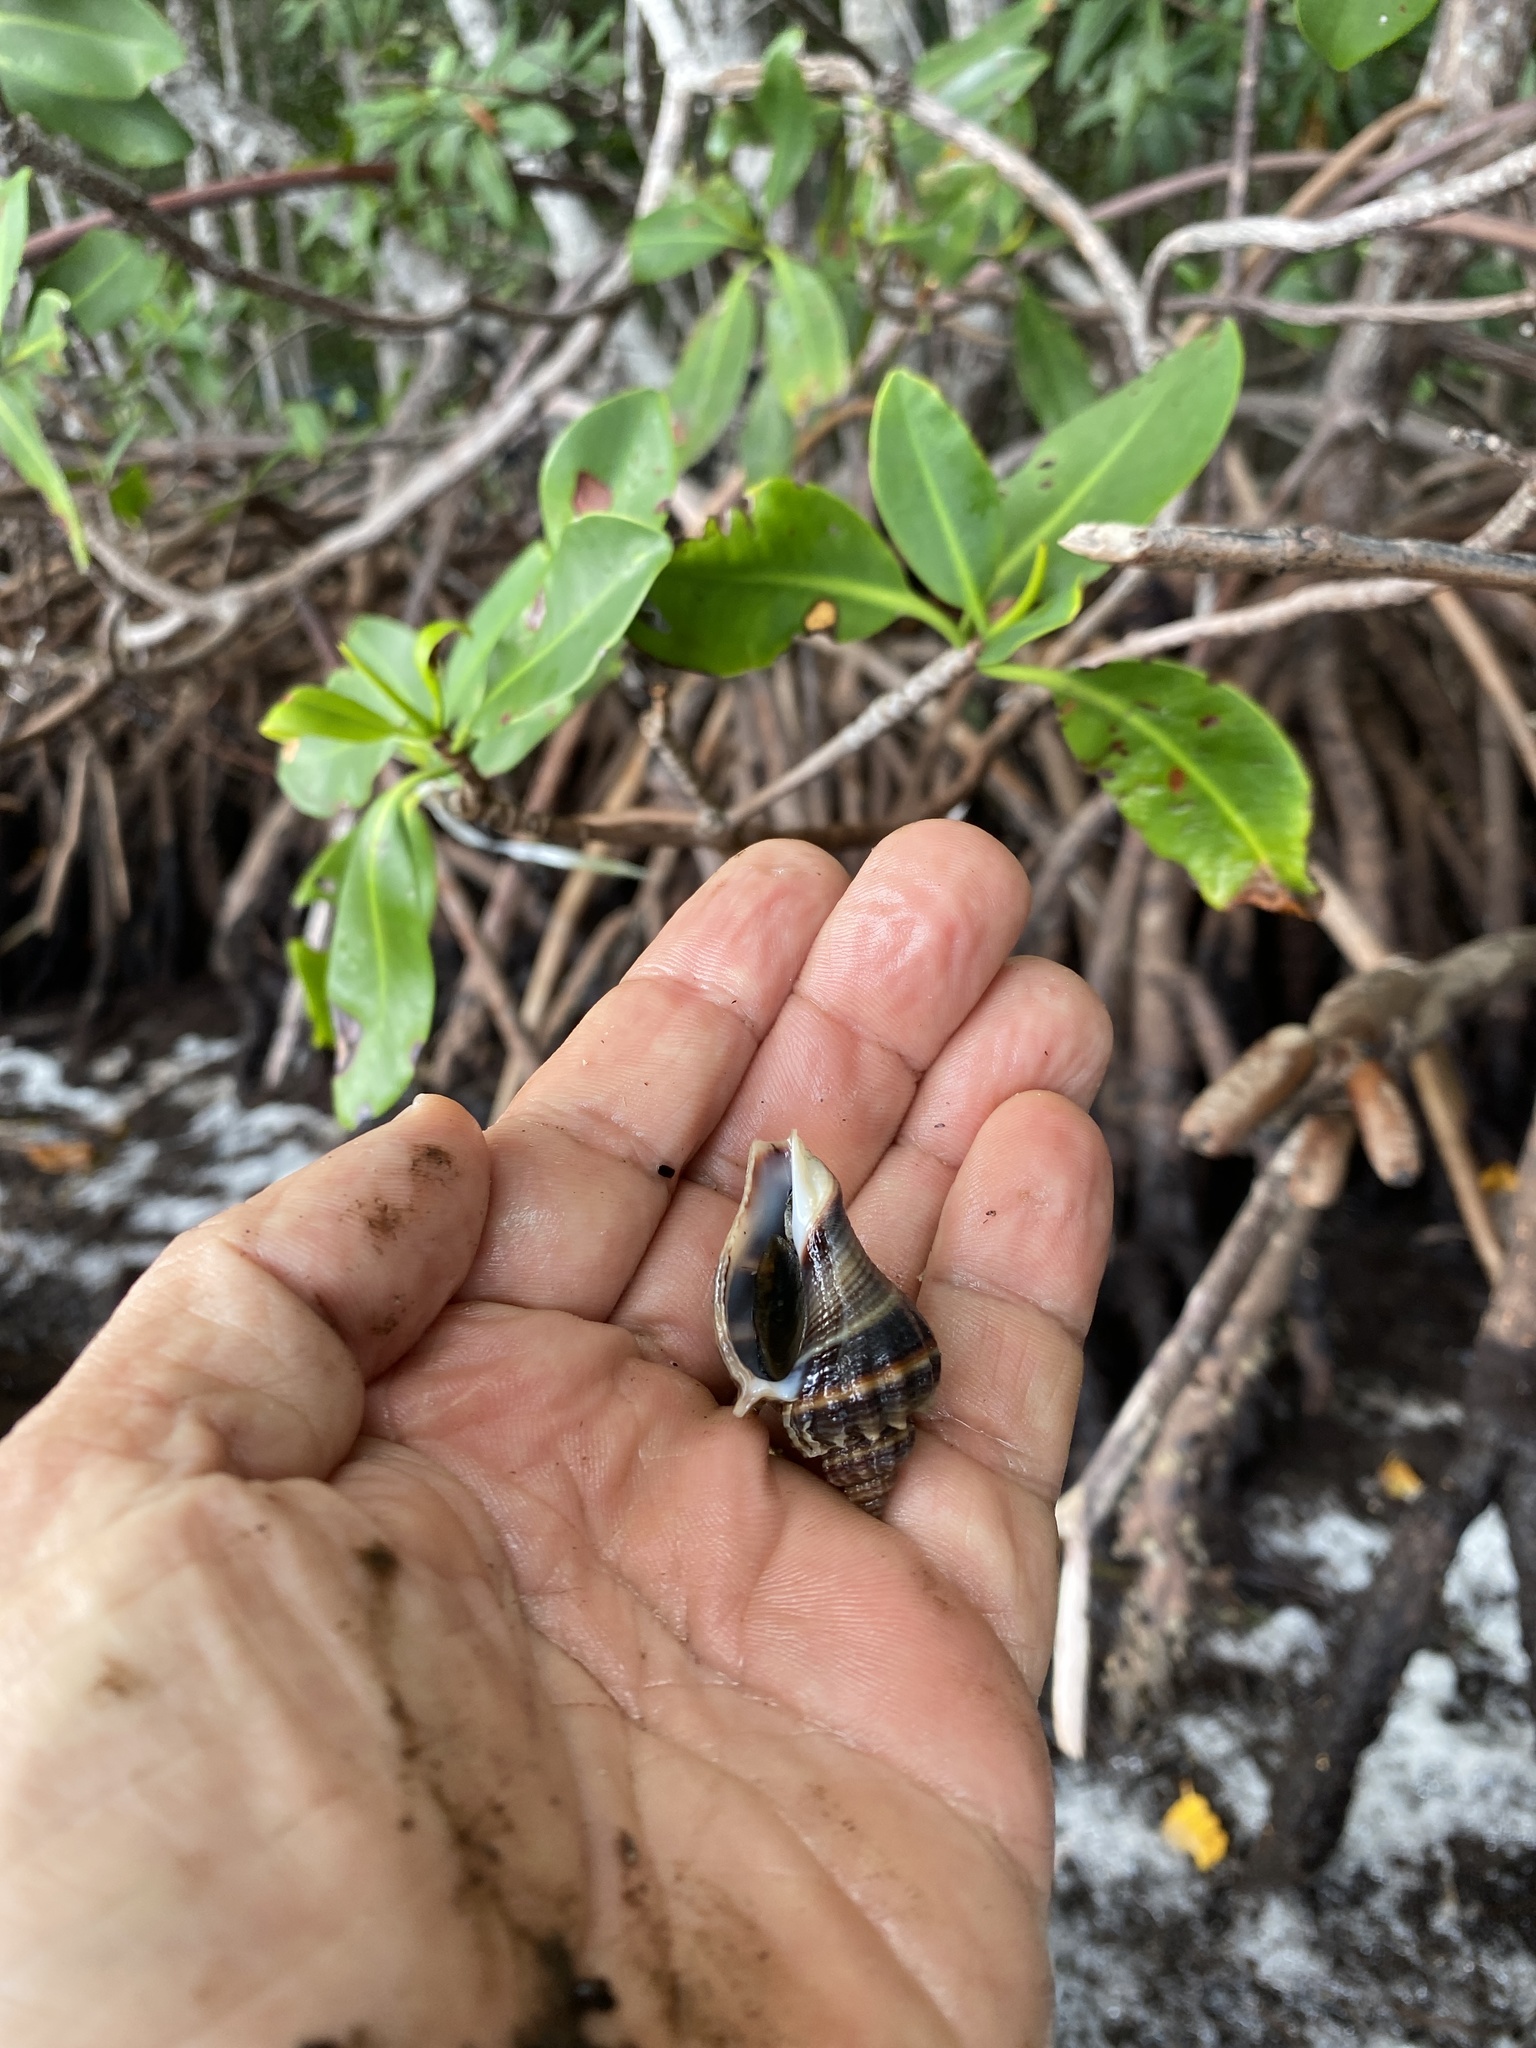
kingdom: Animalia
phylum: Mollusca
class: Gastropoda
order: Neogastropoda
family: Melongenidae
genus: Melongena
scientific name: Melongena corona
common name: American crown conch
